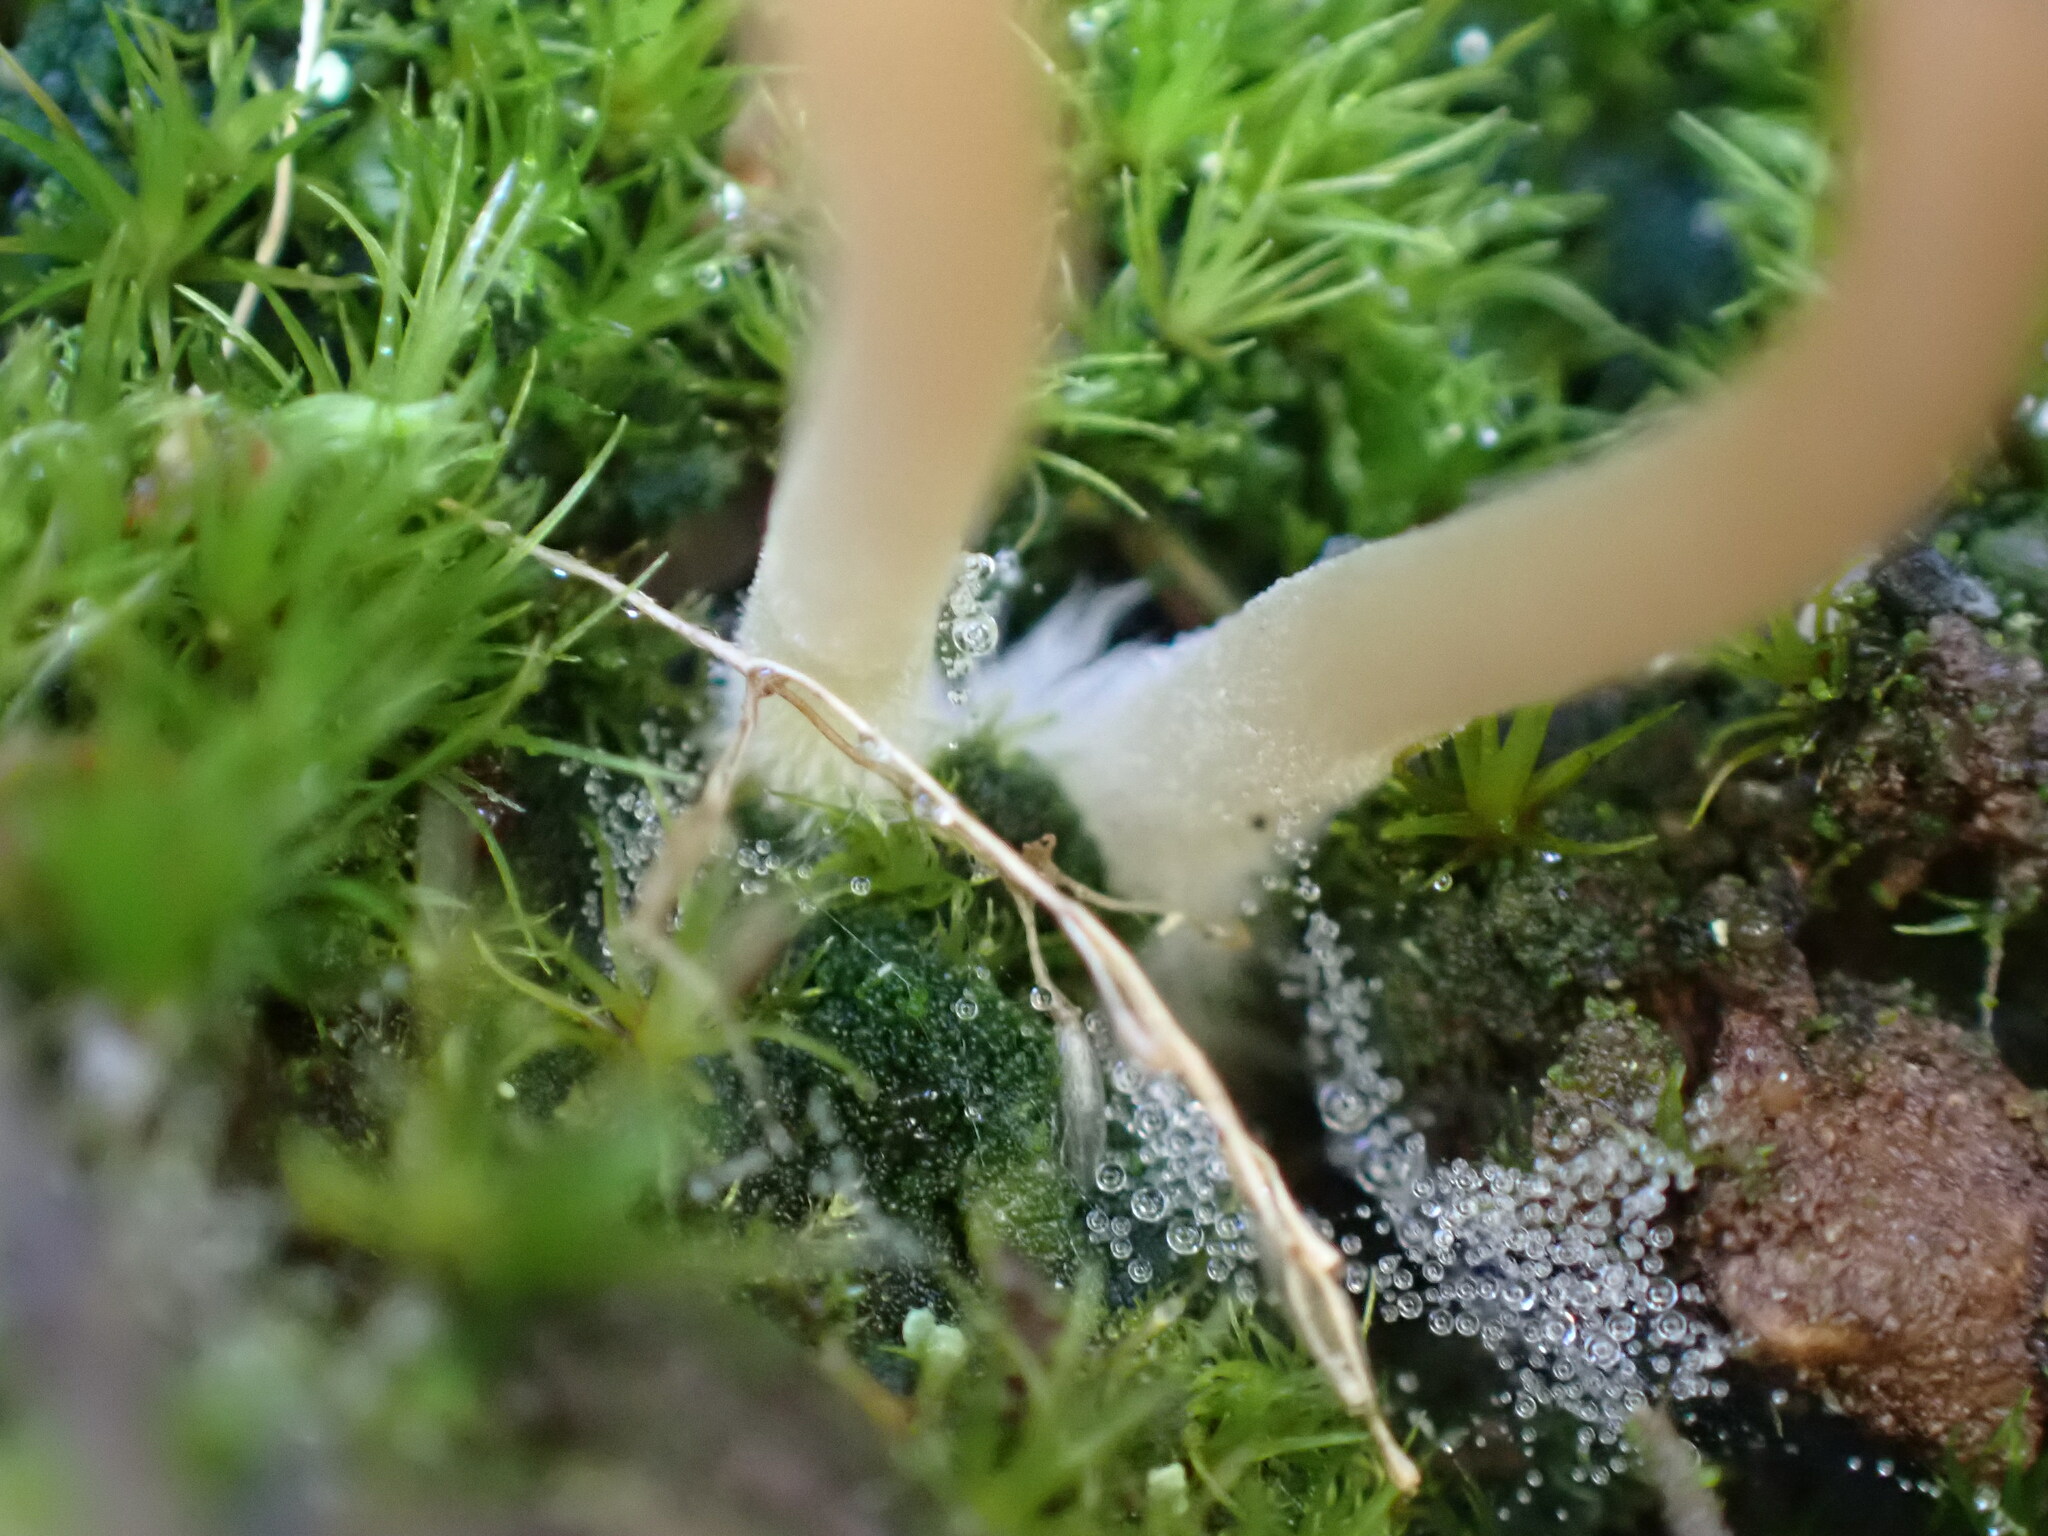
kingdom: Fungi
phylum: Basidiomycota
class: Agaricomycetes
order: Agaricales
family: Hygrophoraceae
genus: Lichenomphalia
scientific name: Lichenomphalia
